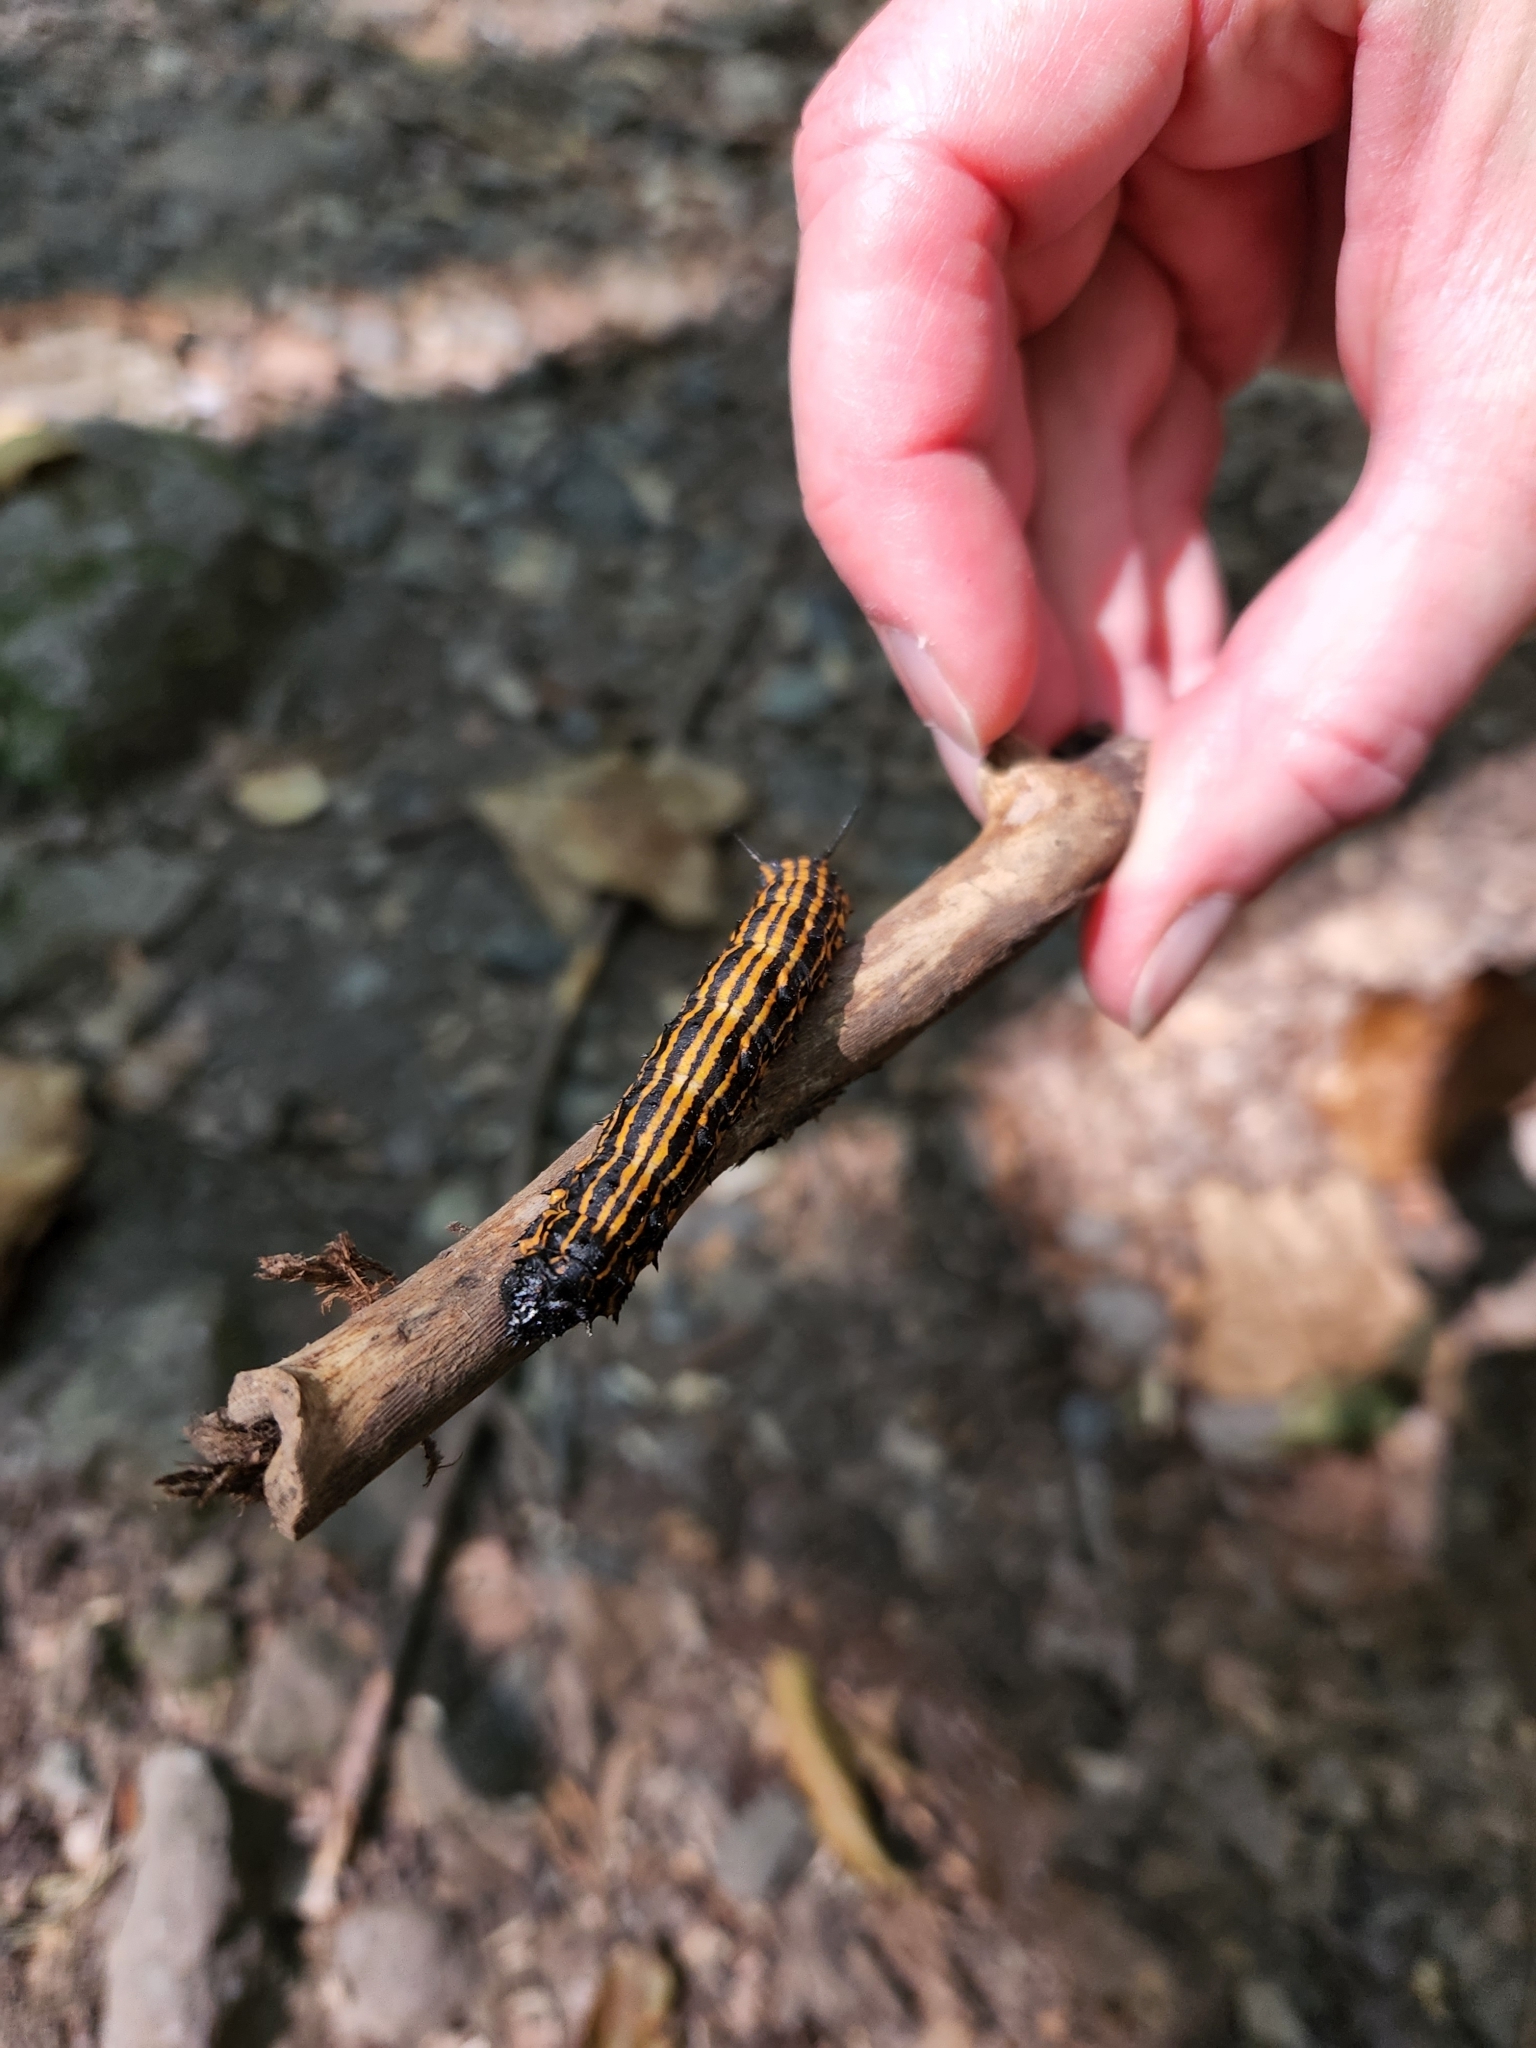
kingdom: Animalia
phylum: Arthropoda
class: Insecta
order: Lepidoptera
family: Saturniidae
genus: Anisota
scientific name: Anisota senatoria
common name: Orange-striped oakworm moth
